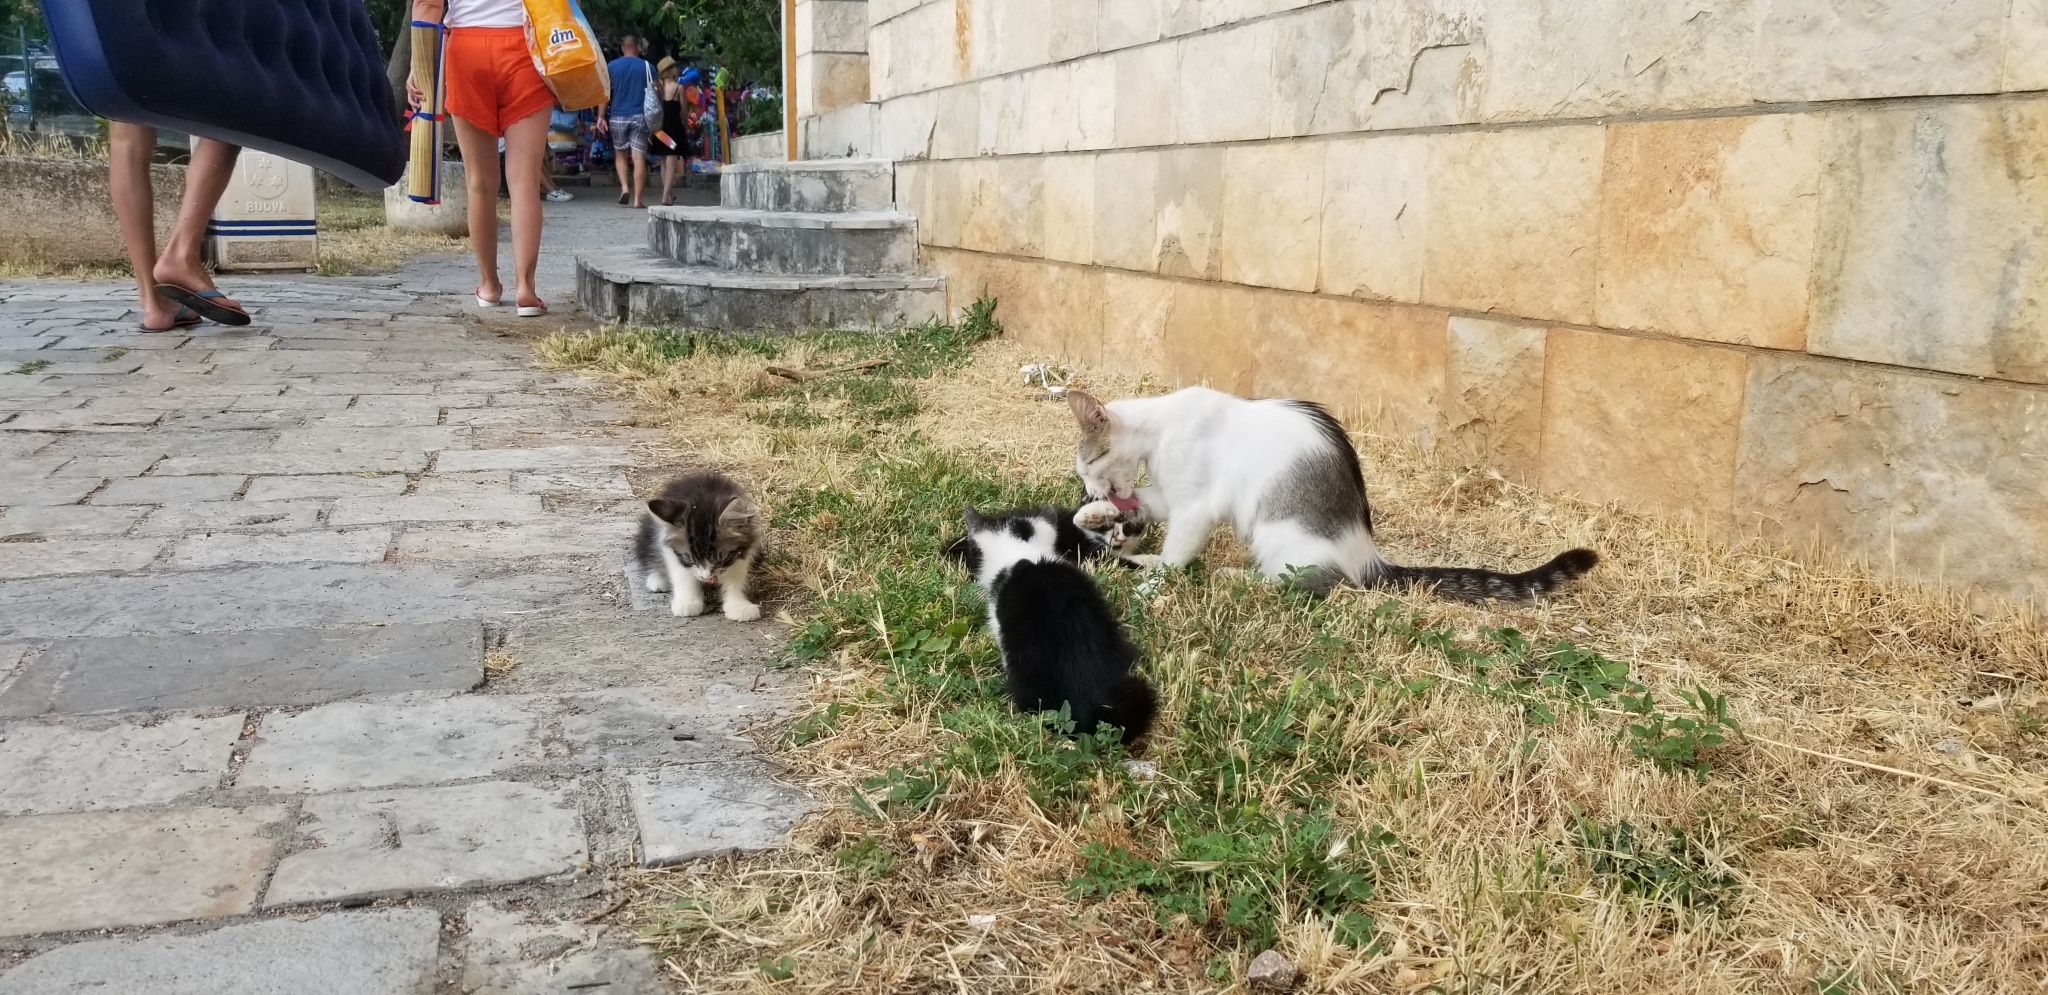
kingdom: Animalia
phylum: Chordata
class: Mammalia
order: Carnivora
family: Felidae
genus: Felis
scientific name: Felis catus
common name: Domestic cat
